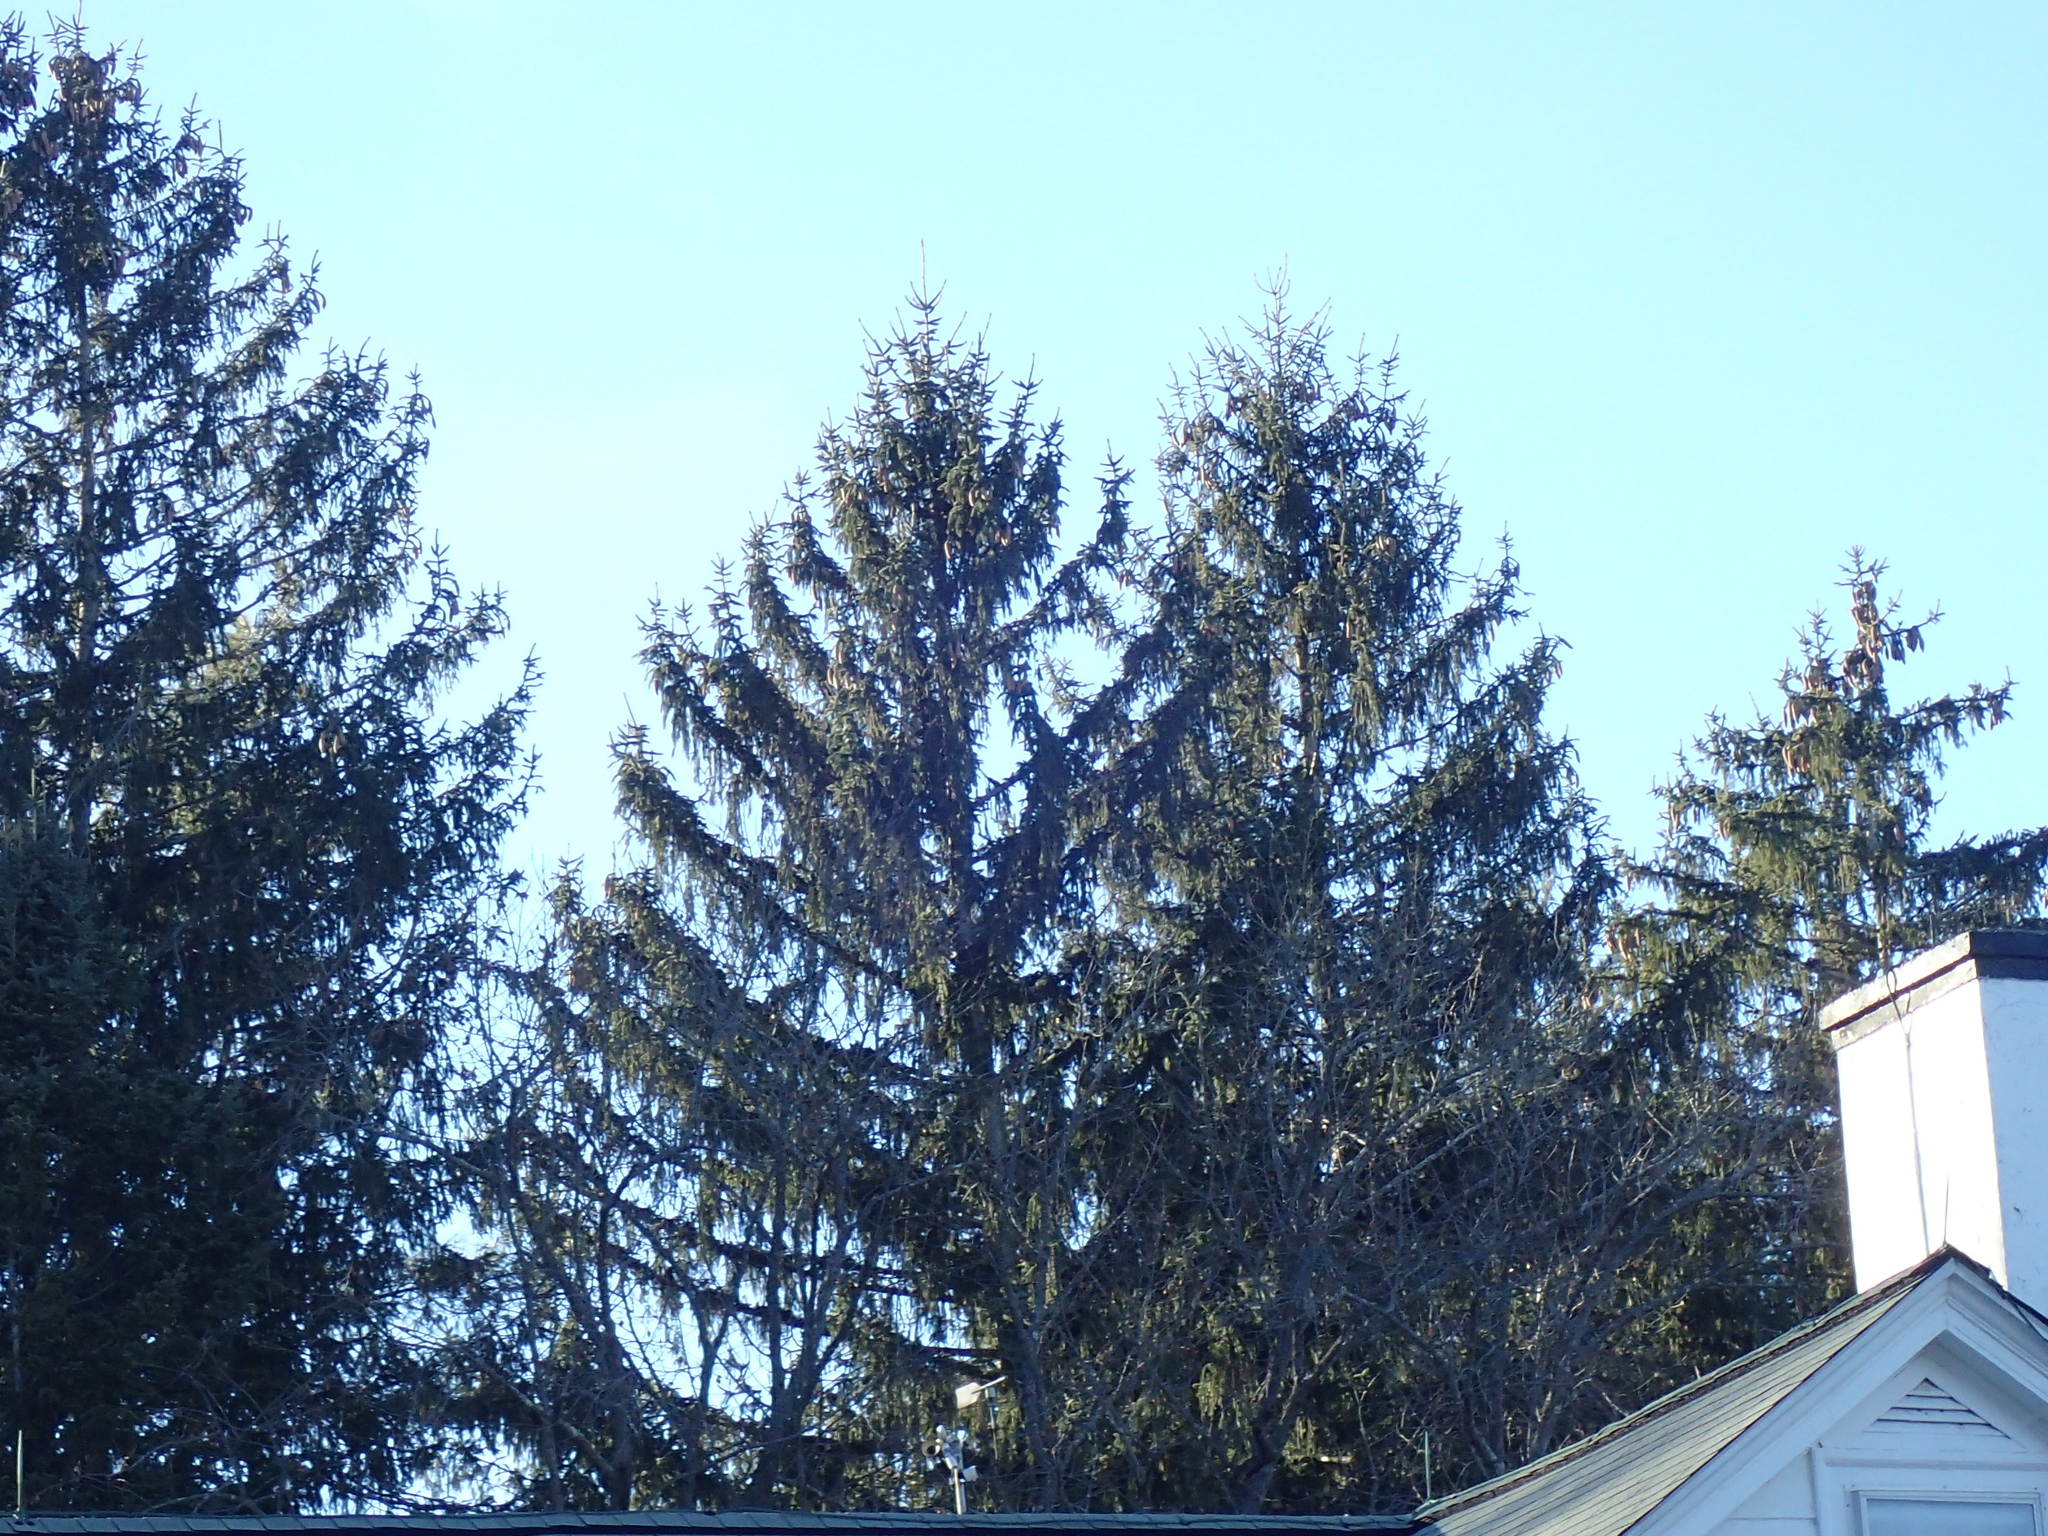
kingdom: Plantae
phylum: Tracheophyta
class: Pinopsida
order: Pinales
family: Pinaceae
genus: Picea
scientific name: Picea abies
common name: Norway spruce
